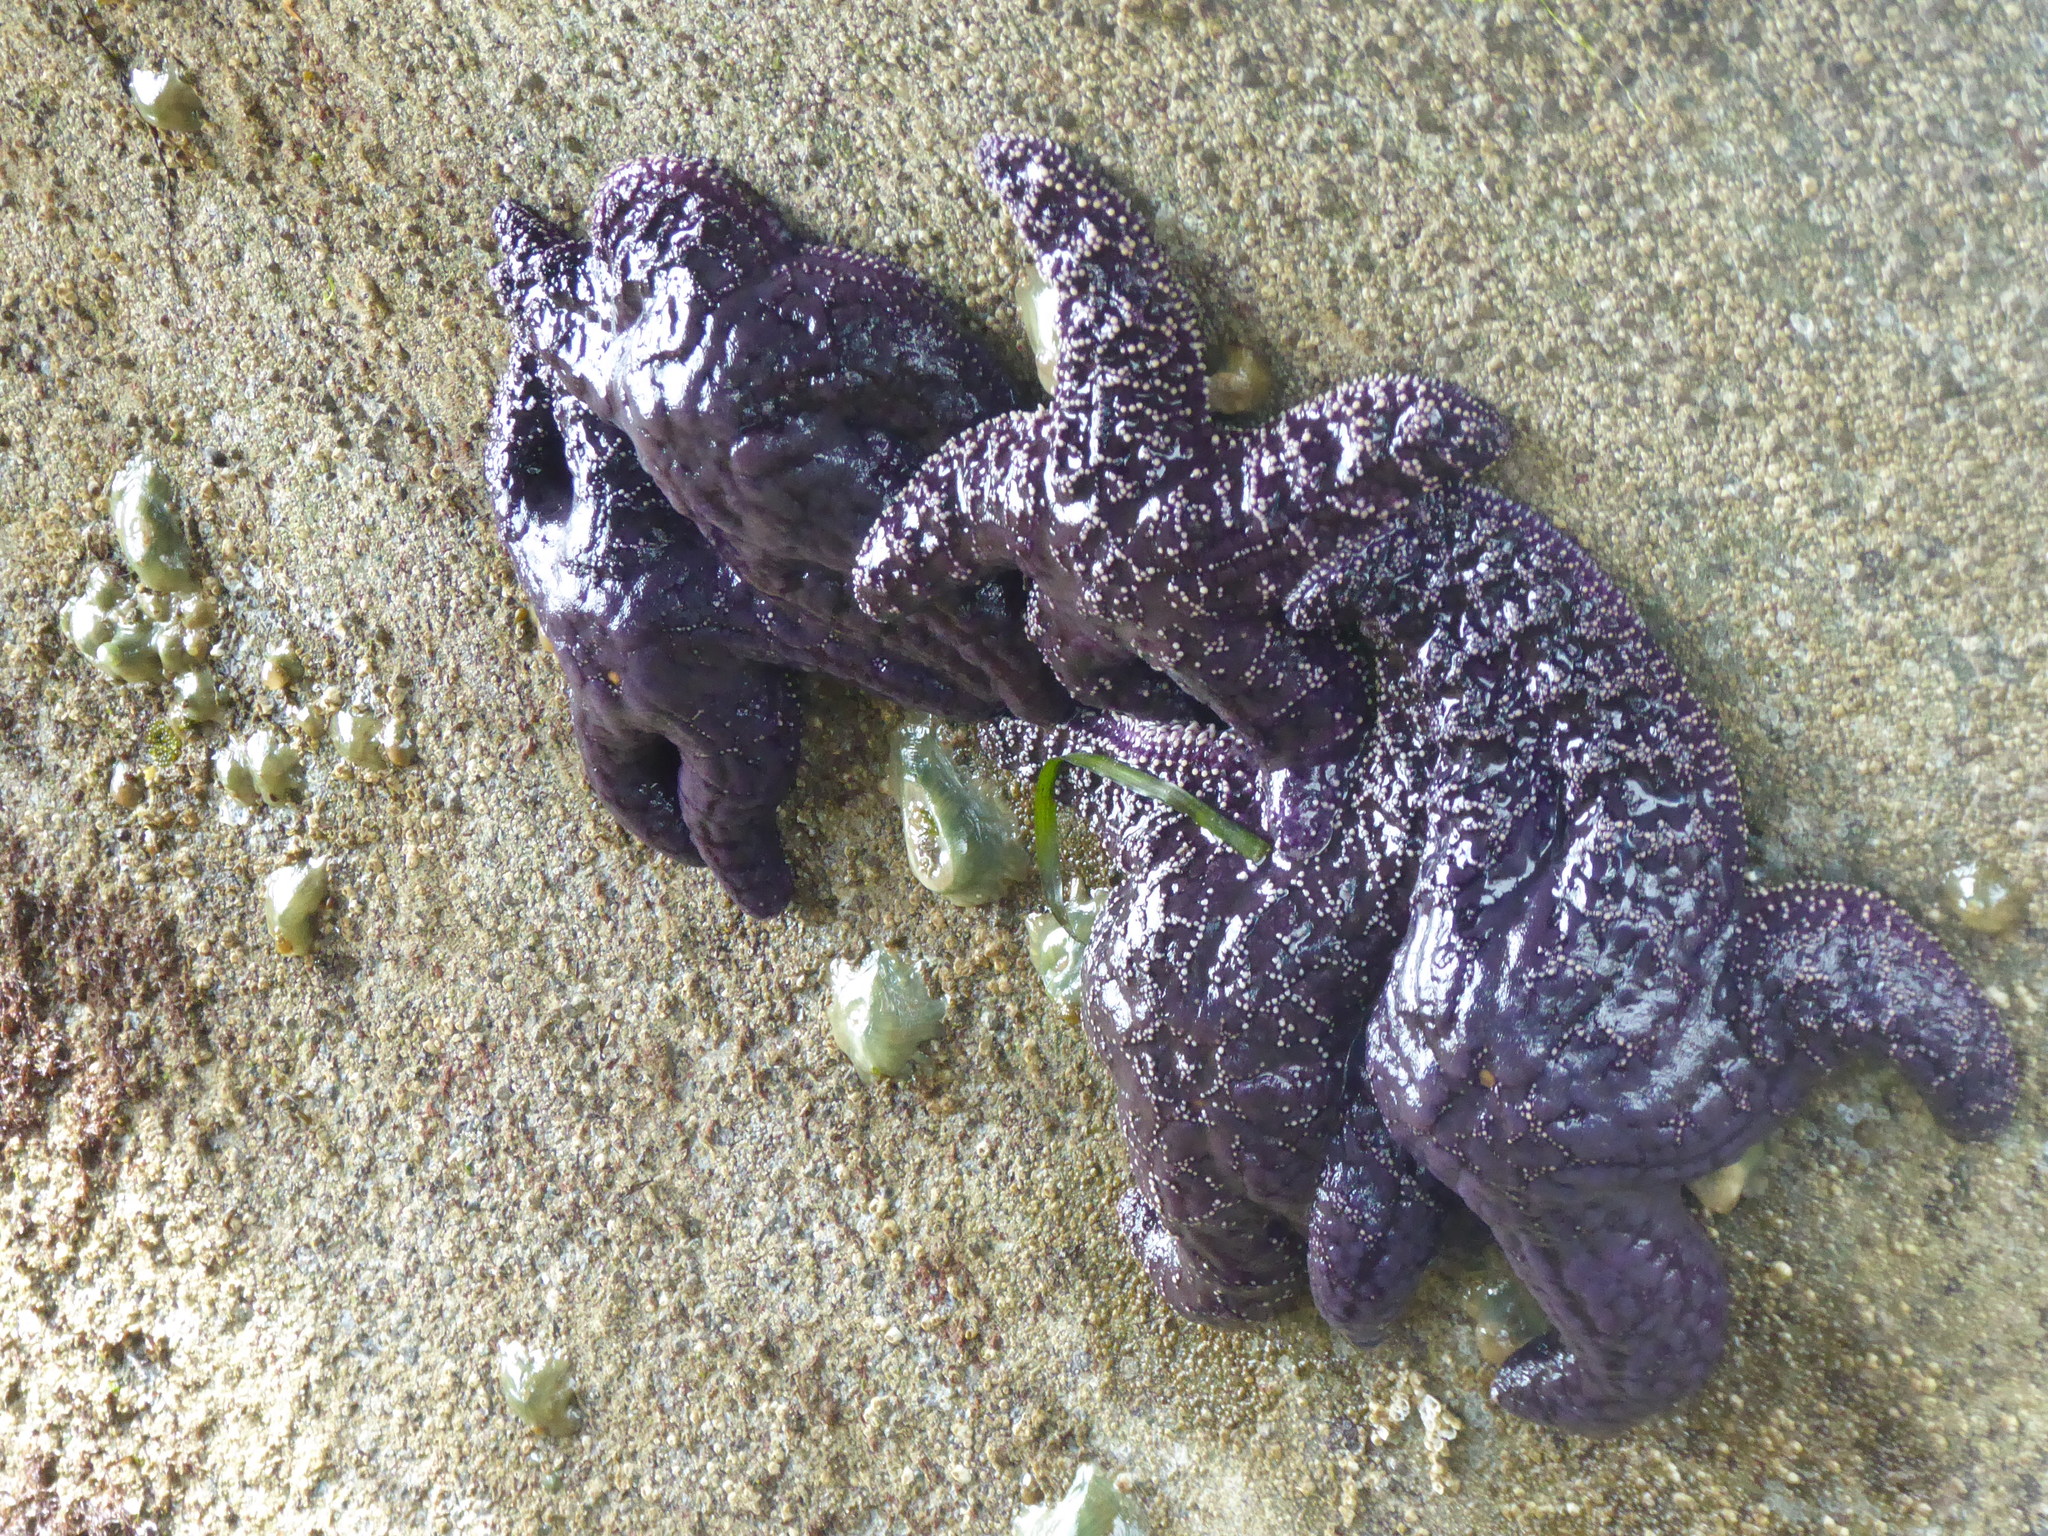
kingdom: Animalia
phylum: Echinodermata
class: Asteroidea
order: Forcipulatida
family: Asteriidae
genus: Pisaster
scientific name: Pisaster ochraceus
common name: Ochre stars
